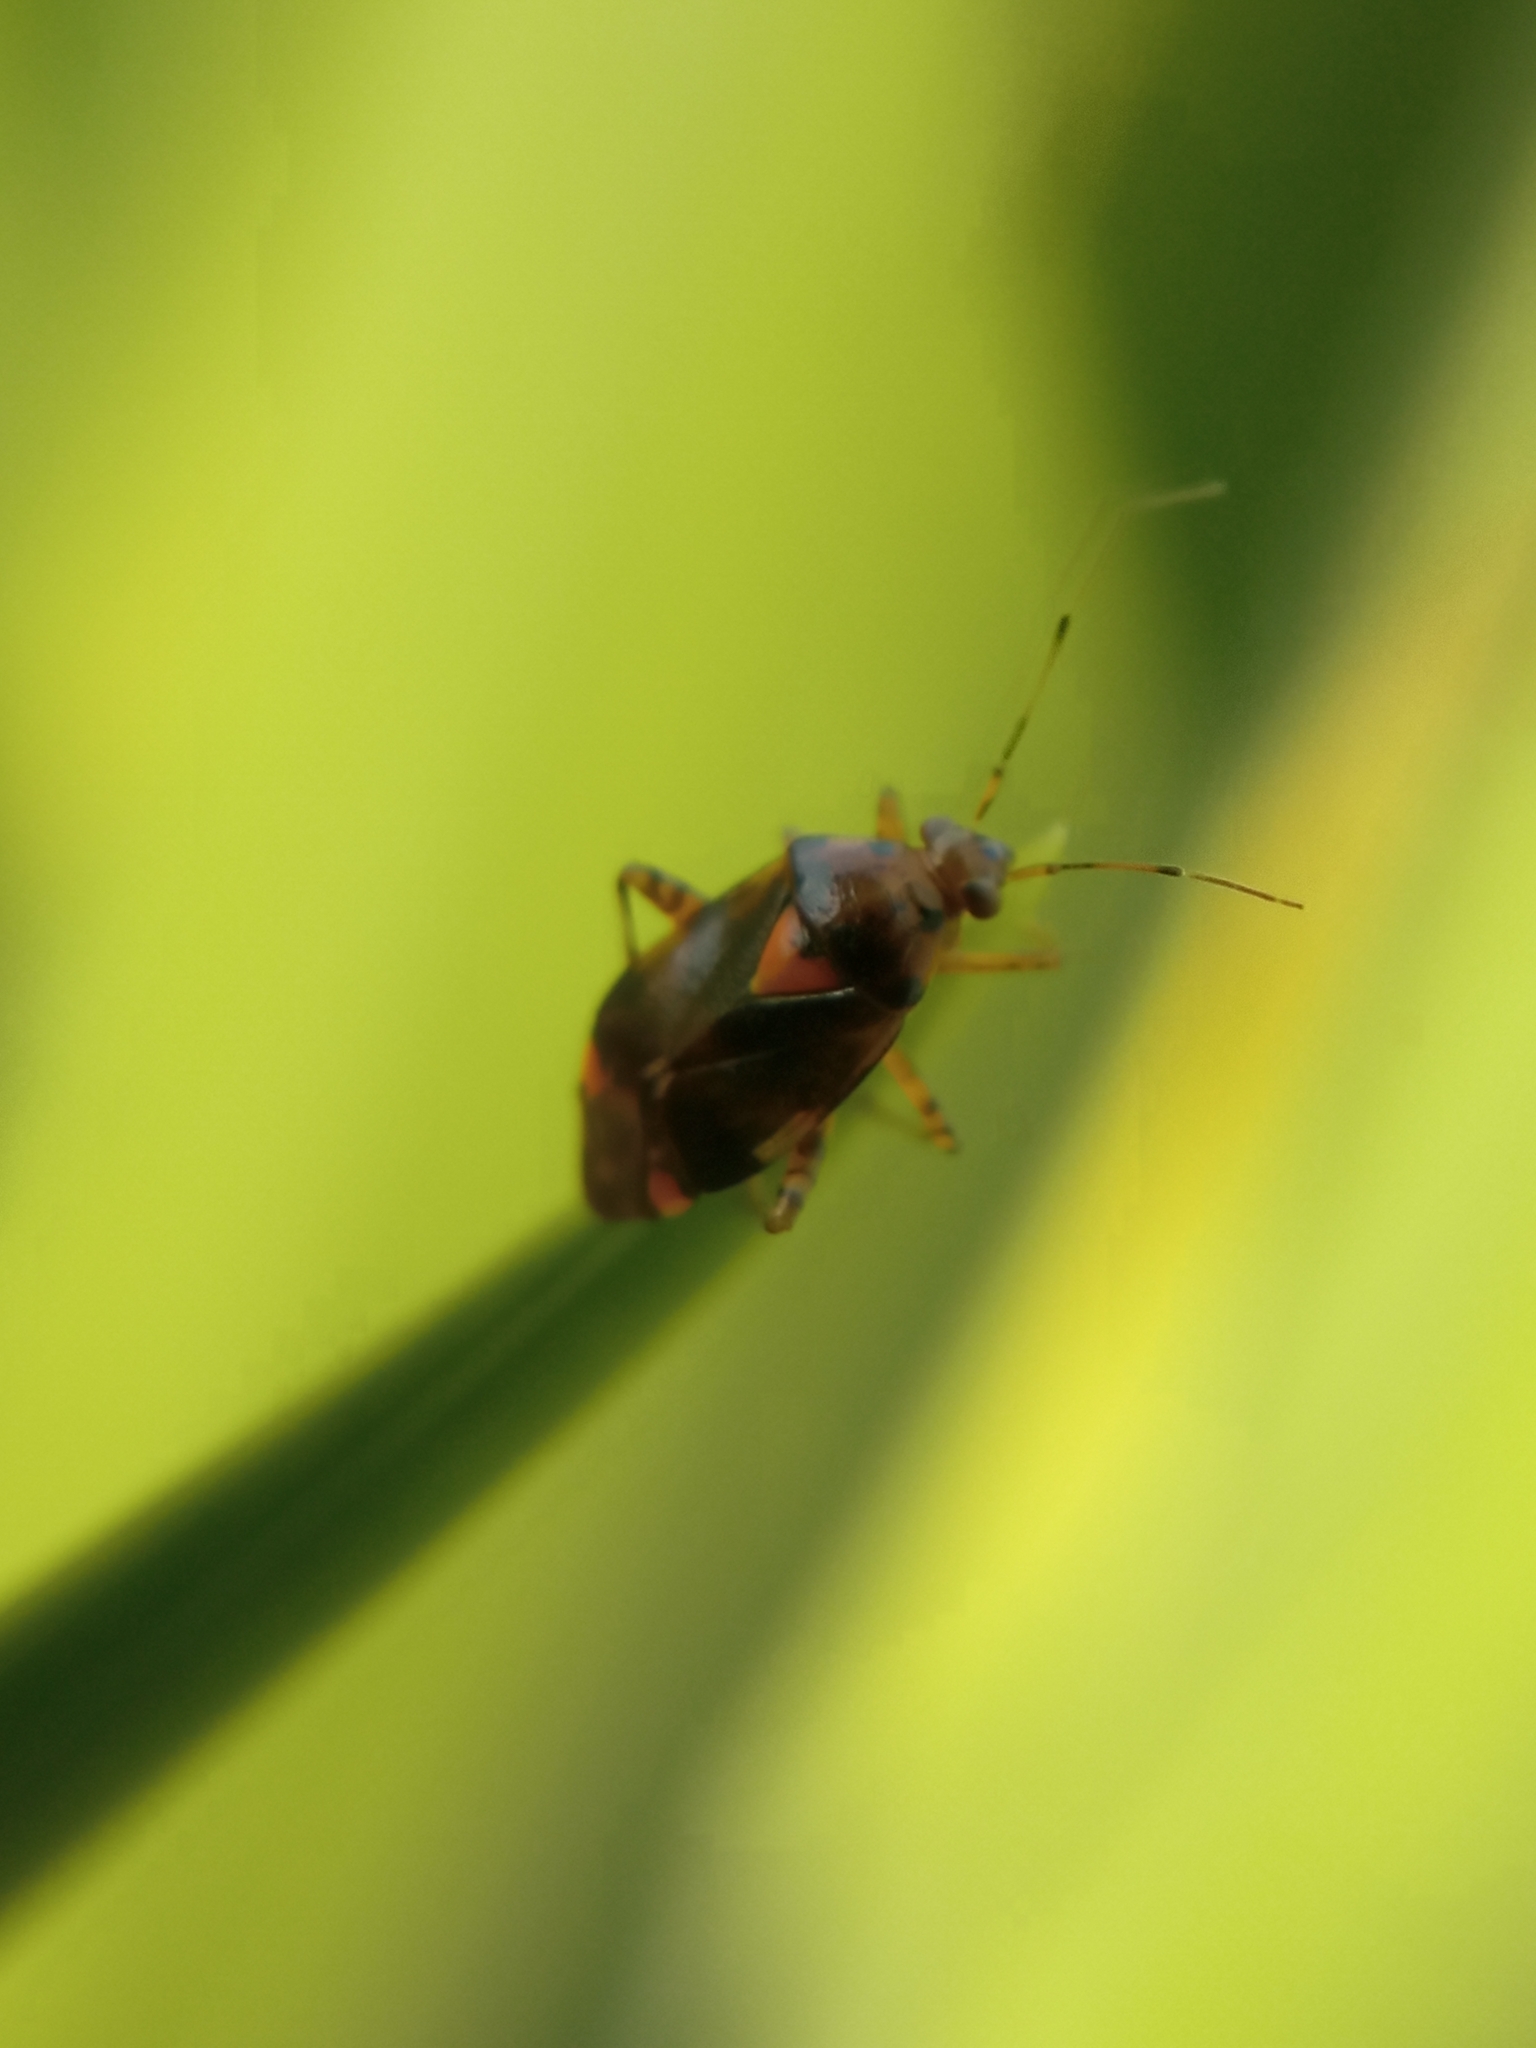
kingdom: Animalia
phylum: Arthropoda
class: Insecta
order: Hemiptera
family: Miridae
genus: Liocoris
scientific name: Liocoris tripustulatus
